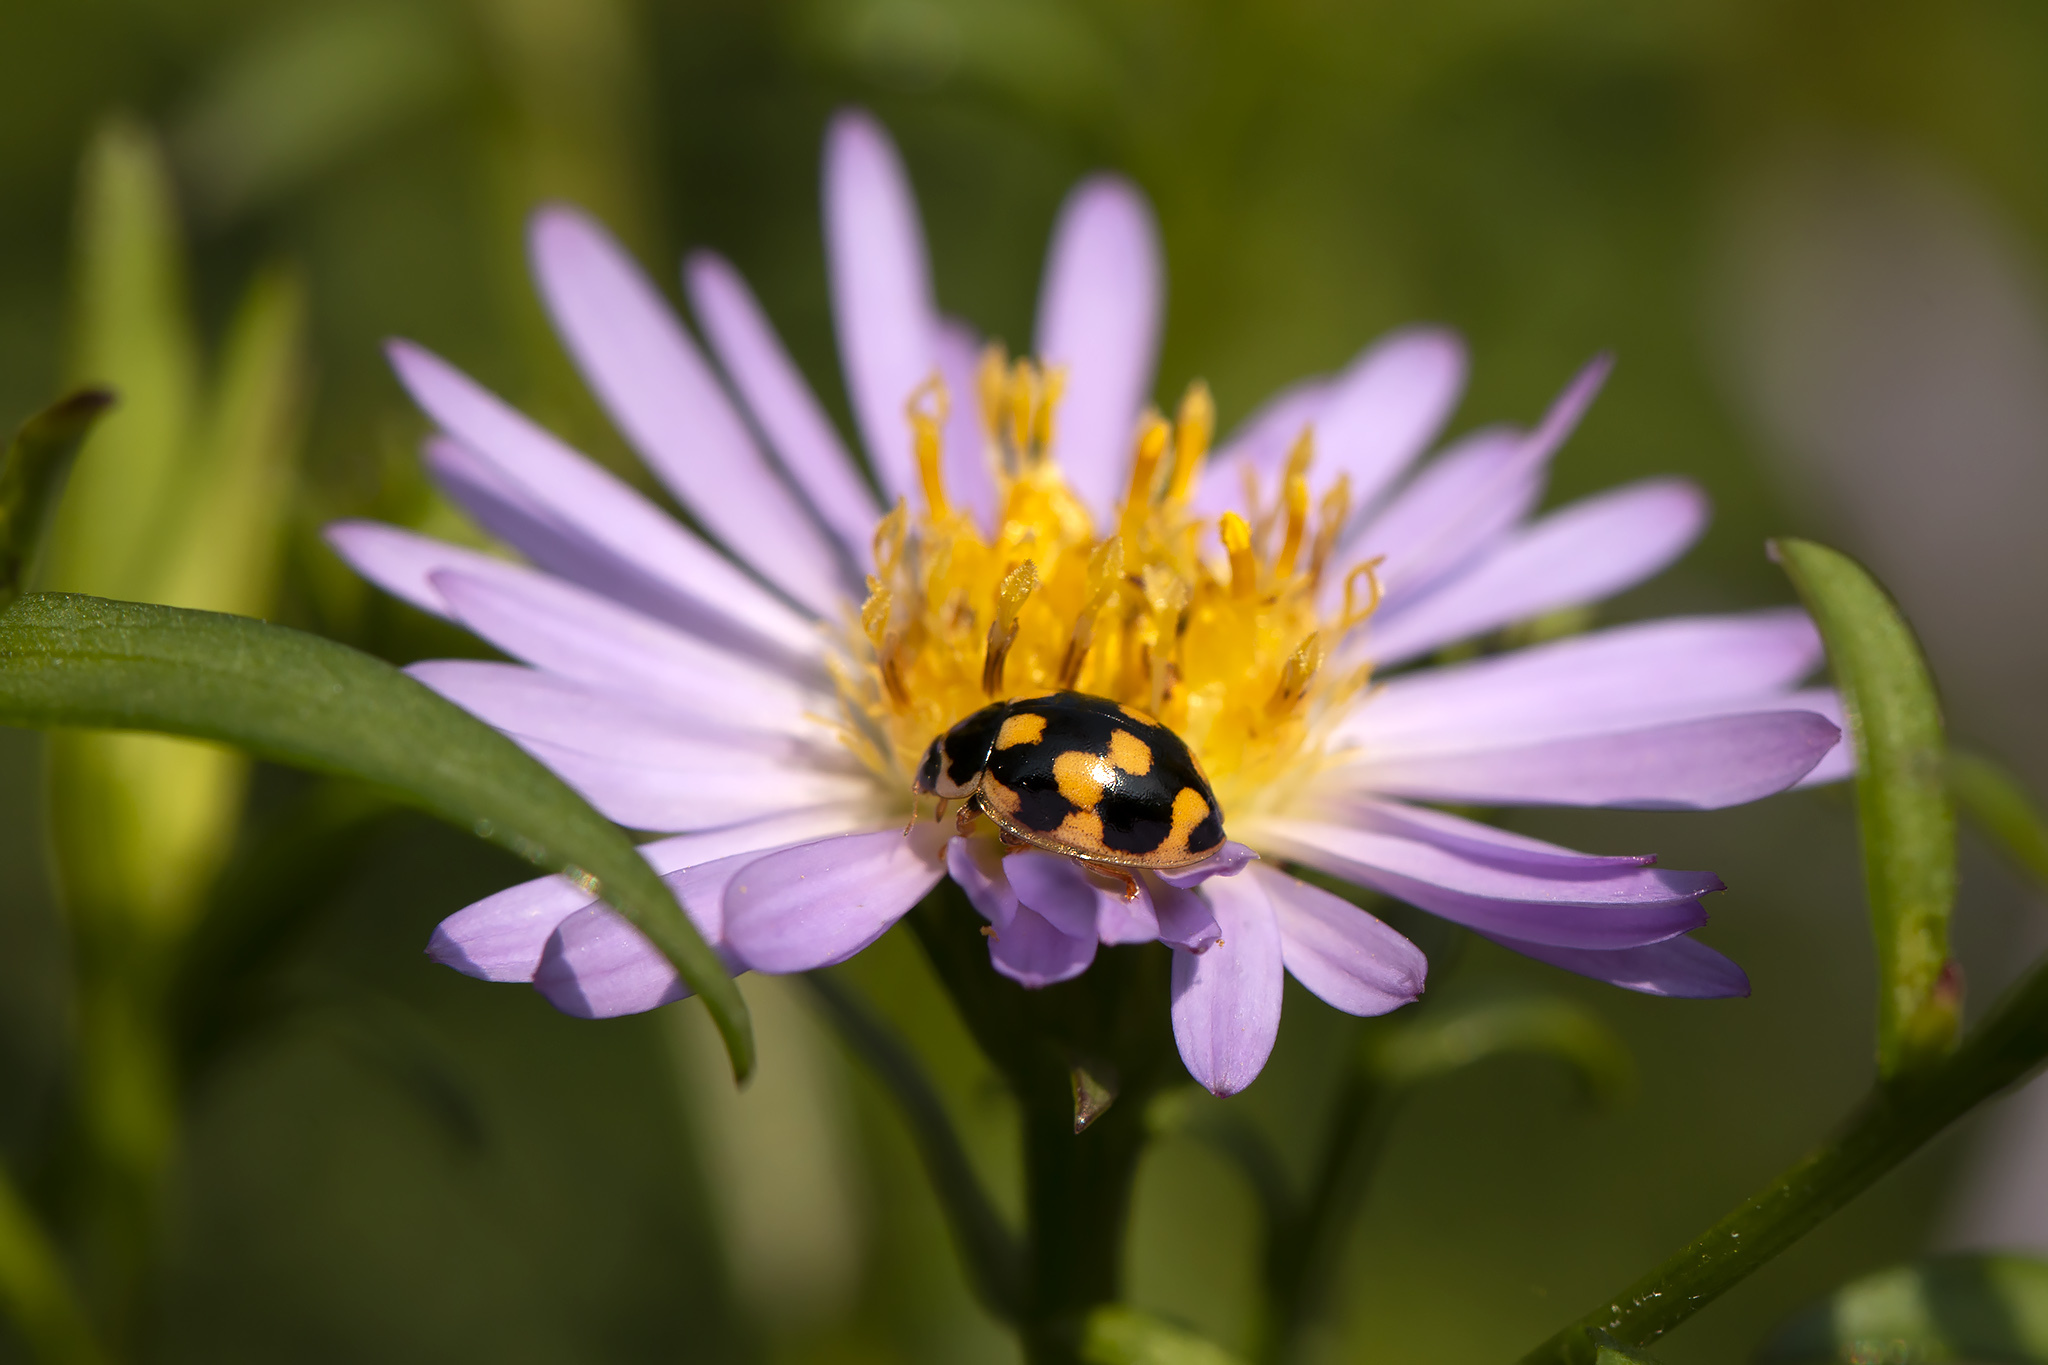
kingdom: Animalia
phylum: Arthropoda
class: Insecta
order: Coleoptera
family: Coccinellidae
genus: Propylaea
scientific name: Propylaea quatuordecimpunctata
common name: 14-spotted ladybird beetle
